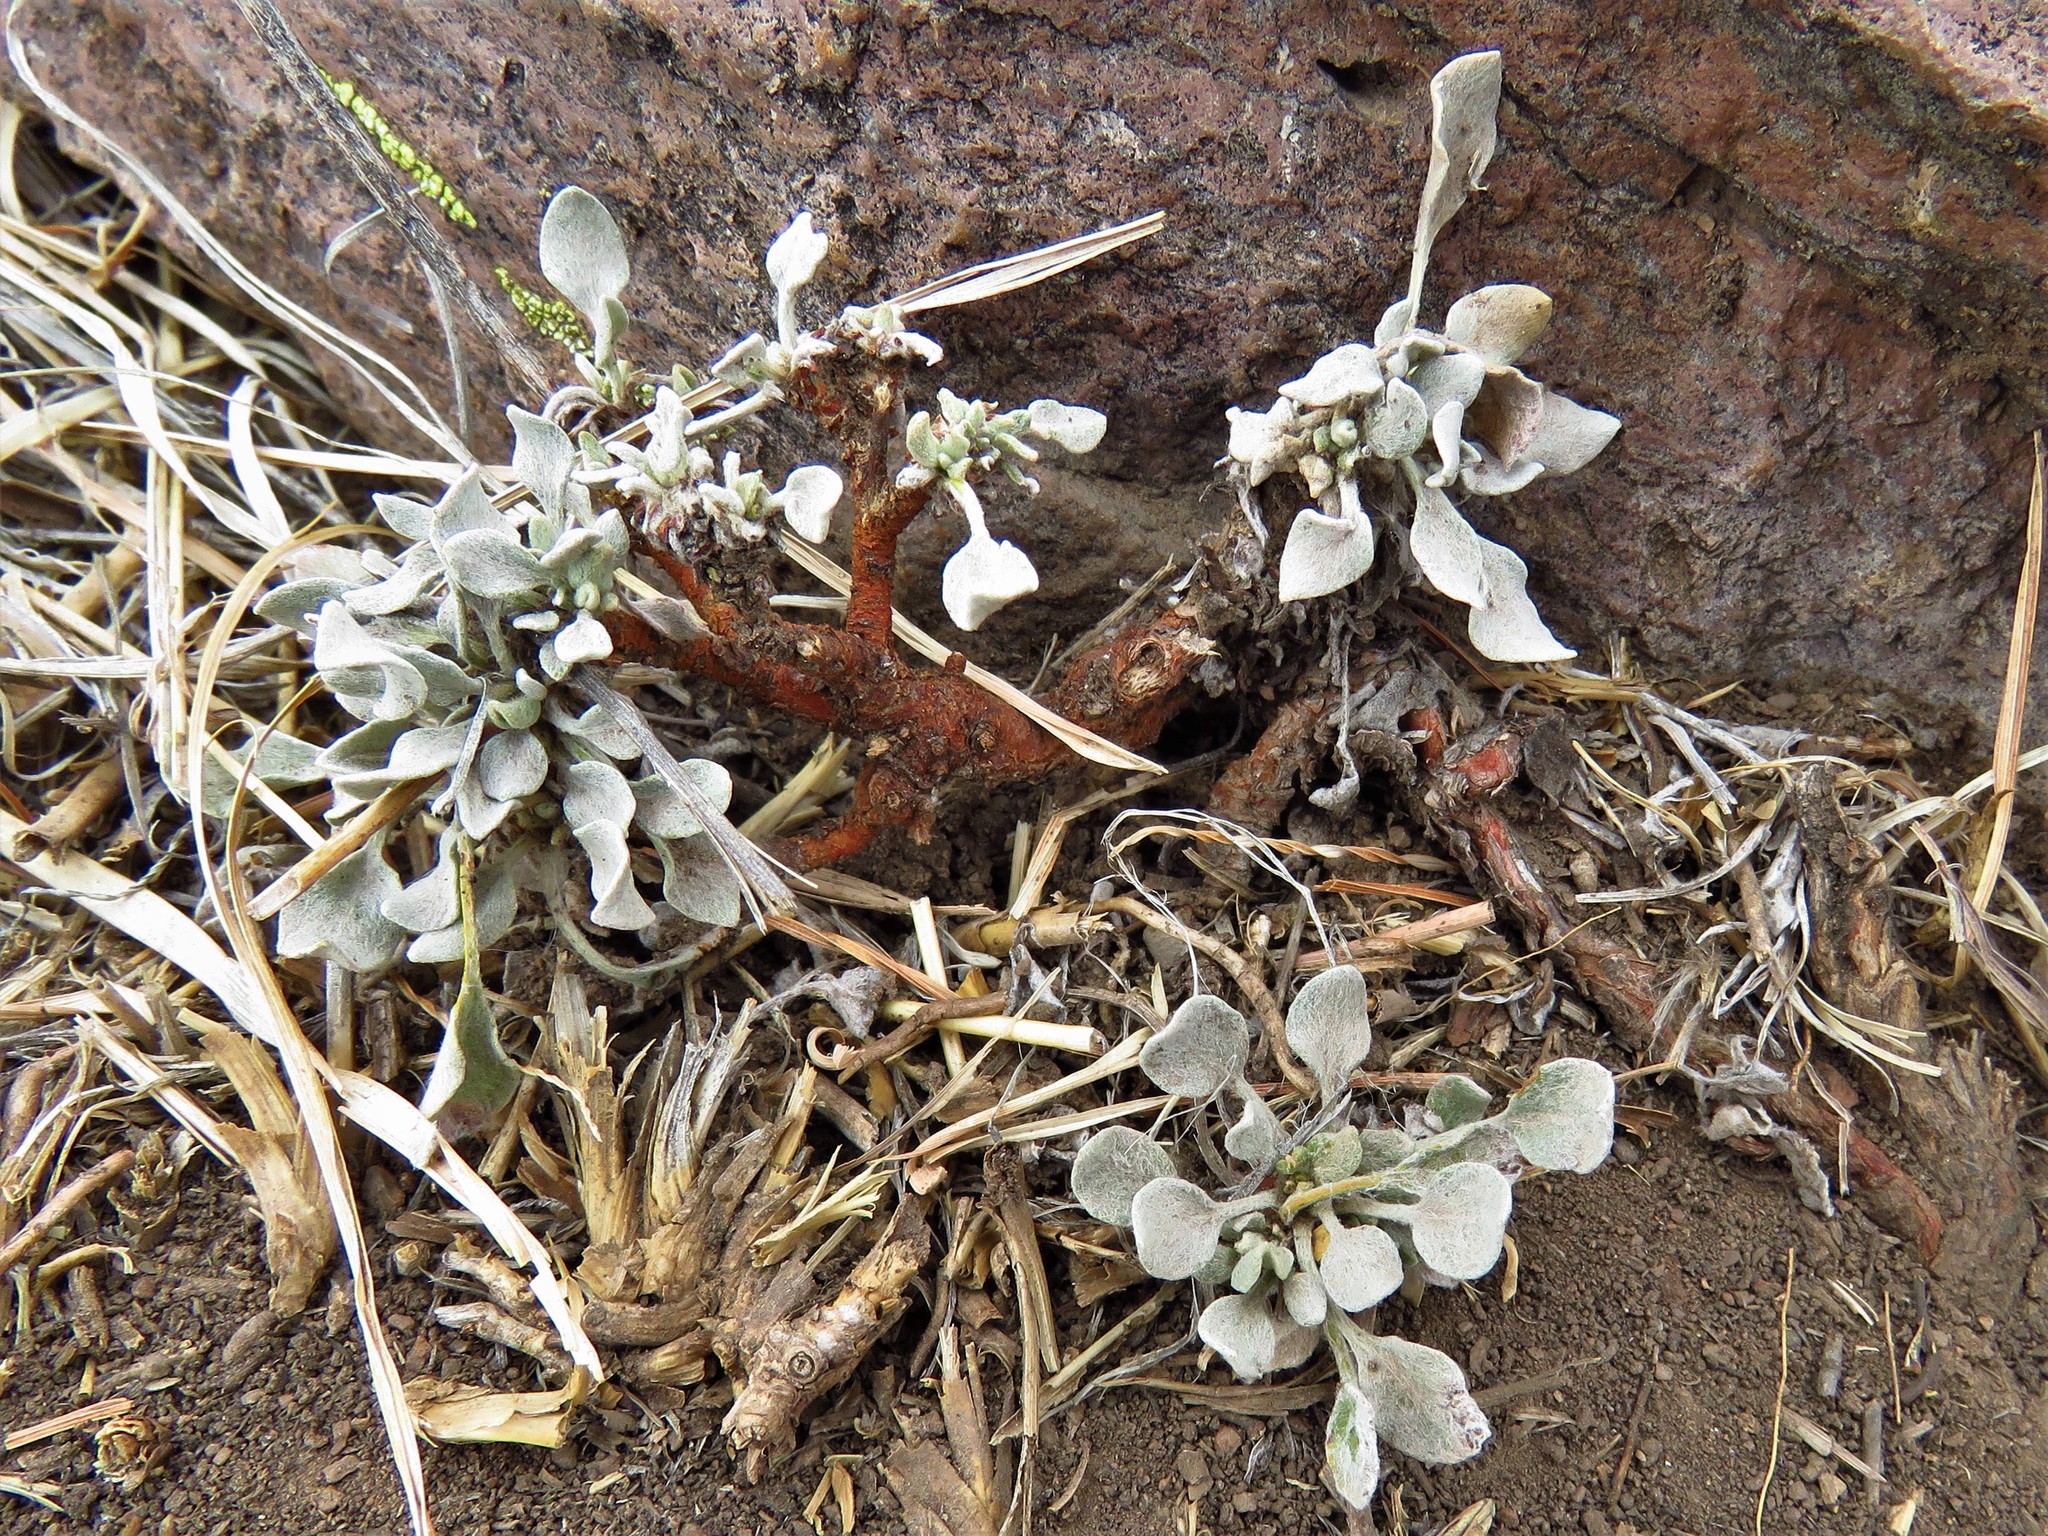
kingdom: Plantae
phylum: Tracheophyta
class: Magnoliopsida
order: Caryophyllales
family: Polygonaceae
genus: Eriogonum
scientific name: Eriogonum tenellum
